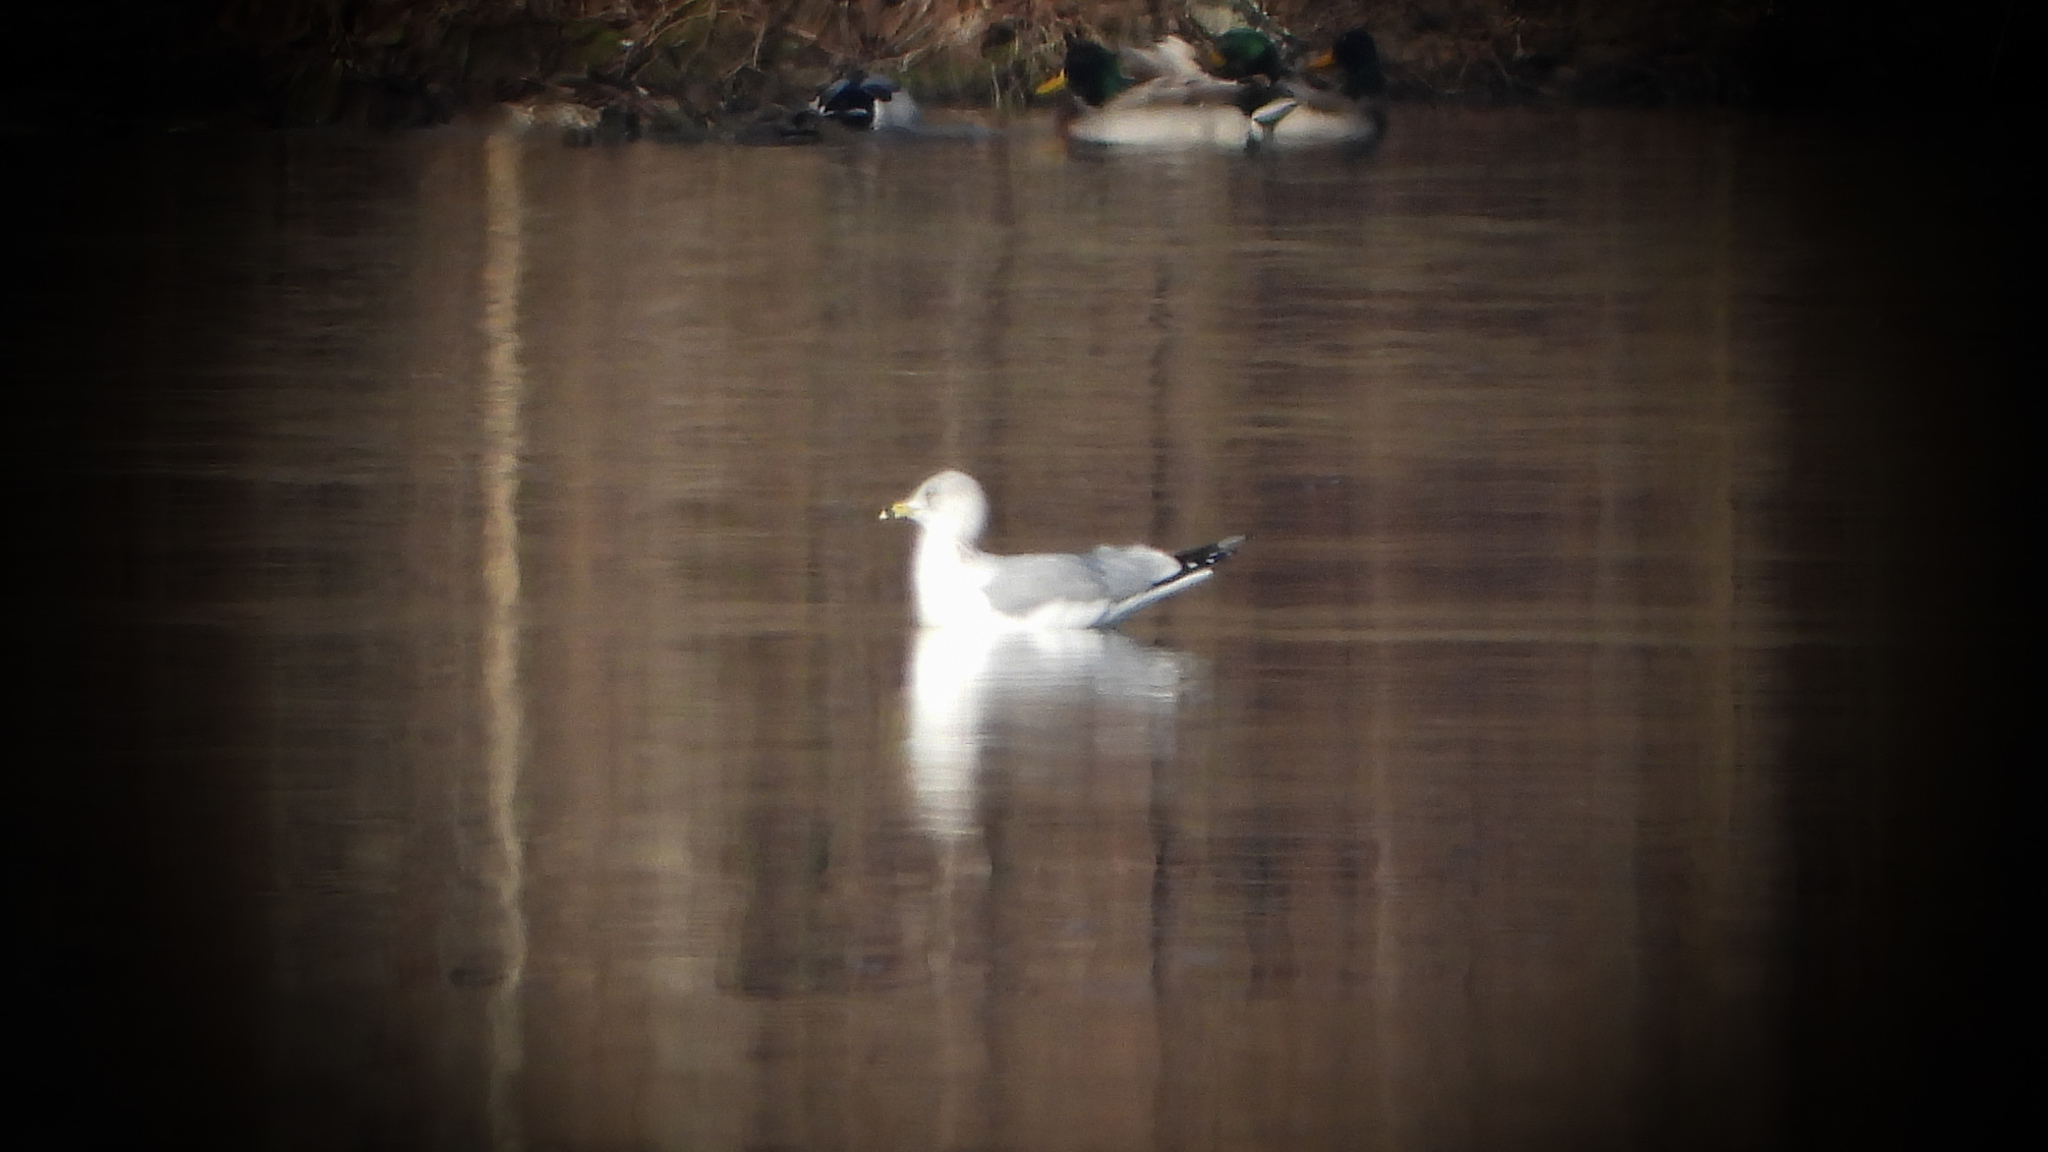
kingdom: Animalia
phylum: Chordata
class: Aves
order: Charadriiformes
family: Laridae
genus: Larus
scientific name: Larus delawarensis
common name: Ring-billed gull
